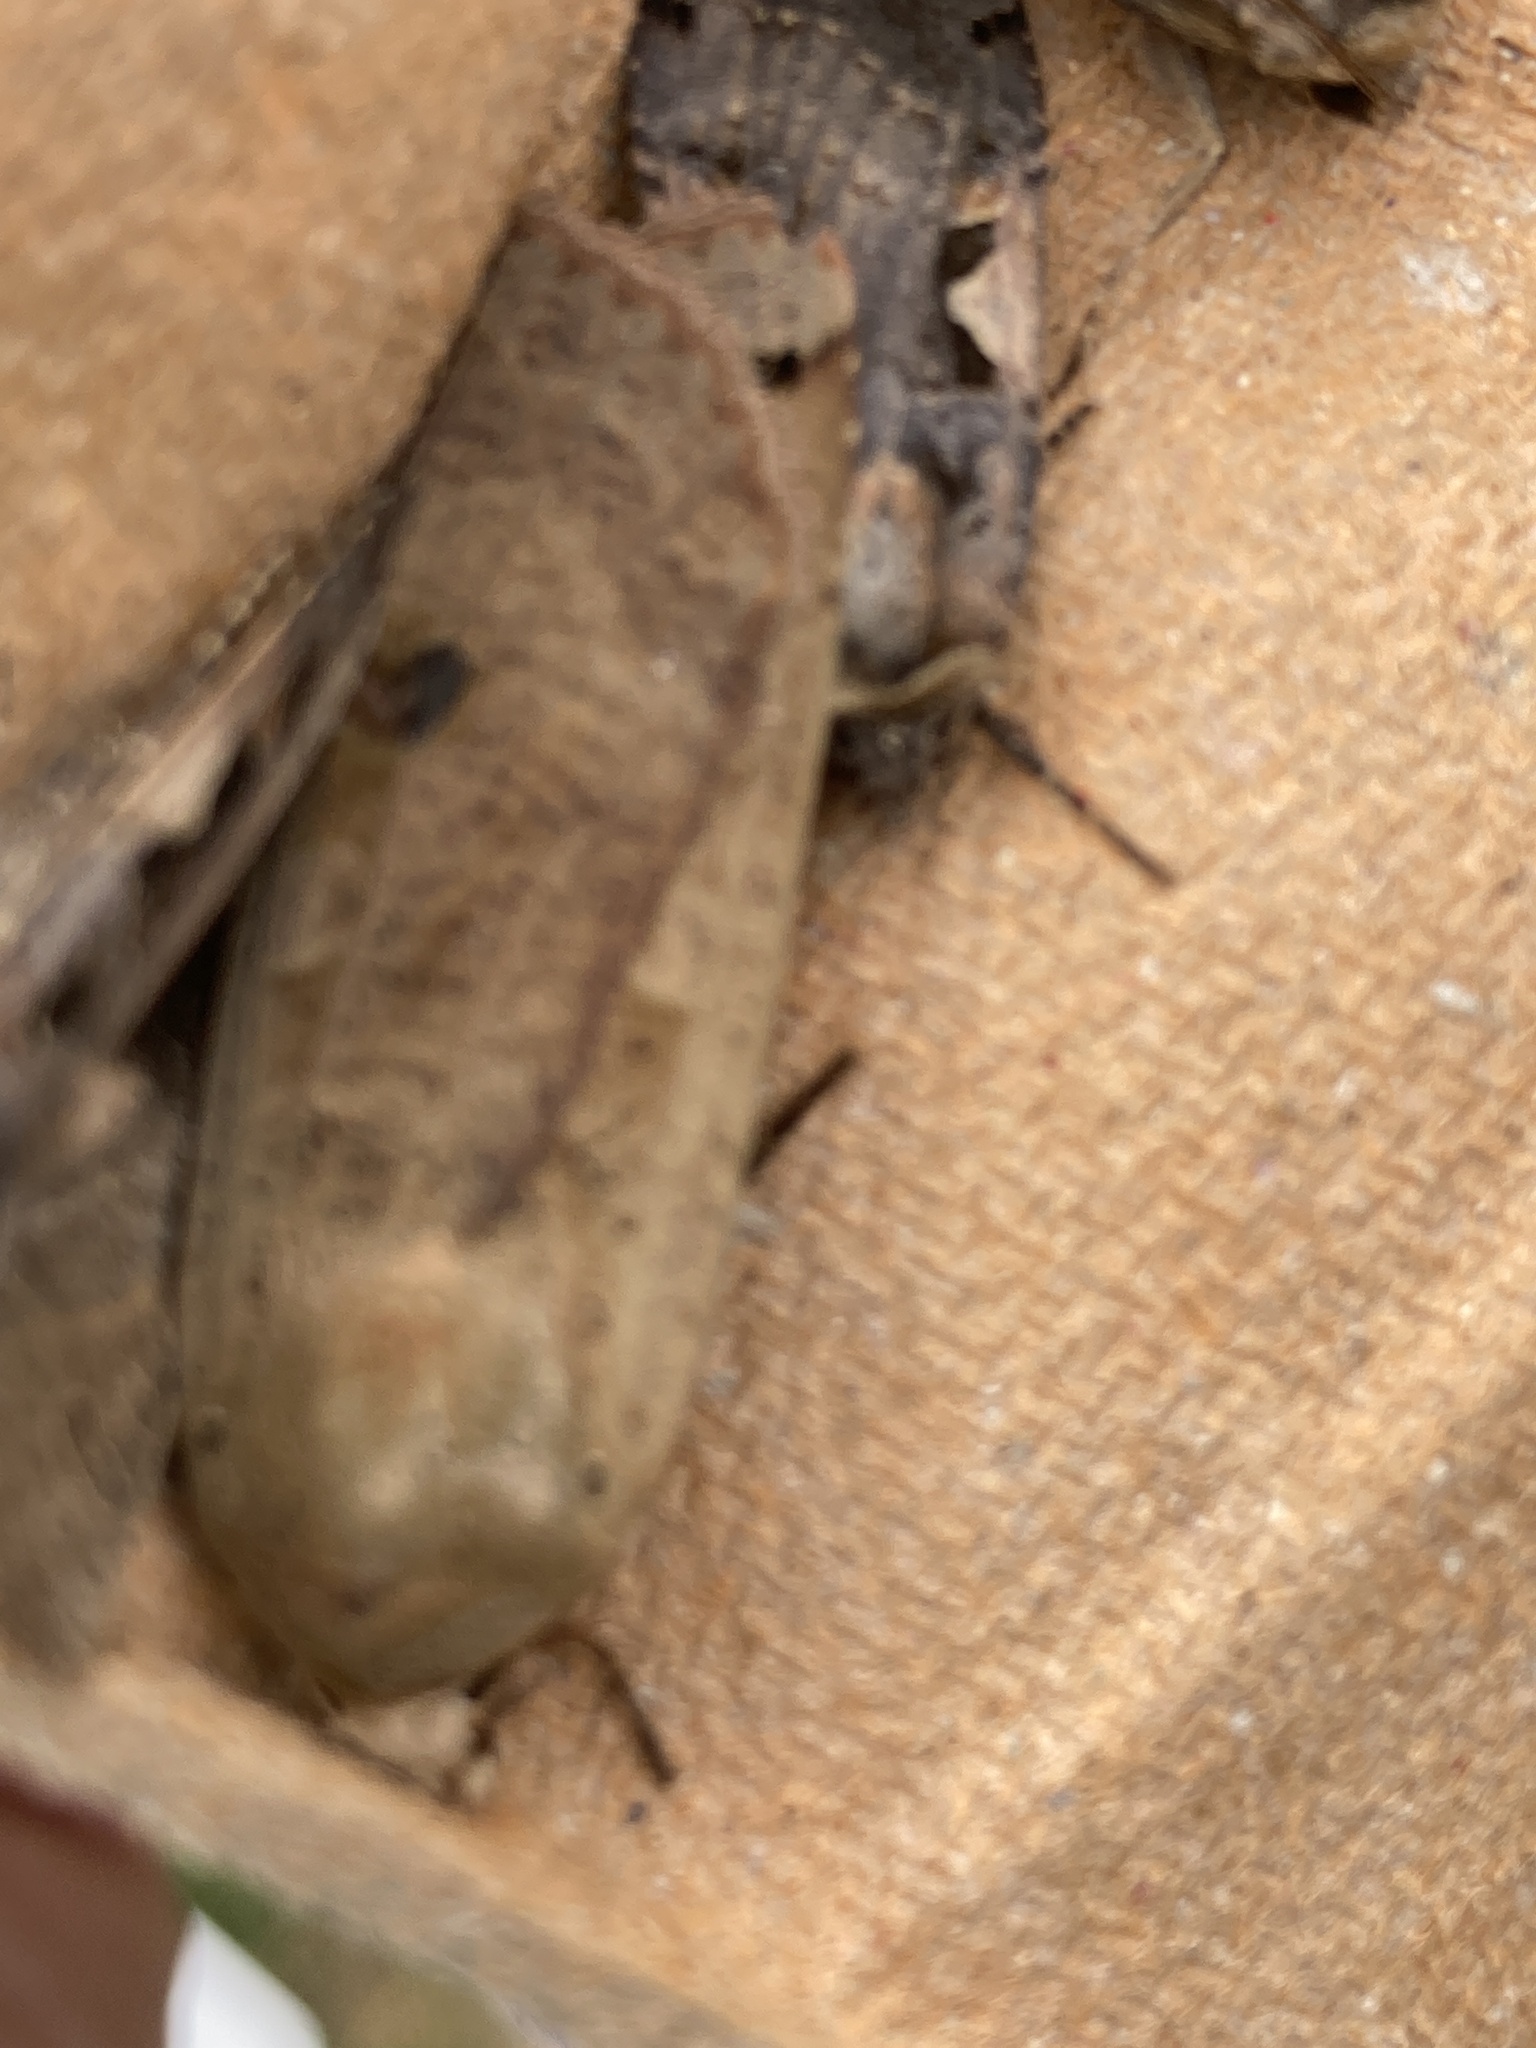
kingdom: Animalia
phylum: Arthropoda
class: Insecta
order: Lepidoptera
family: Noctuidae
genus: Noctua
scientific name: Noctua pronuba
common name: Large yellow underwing
